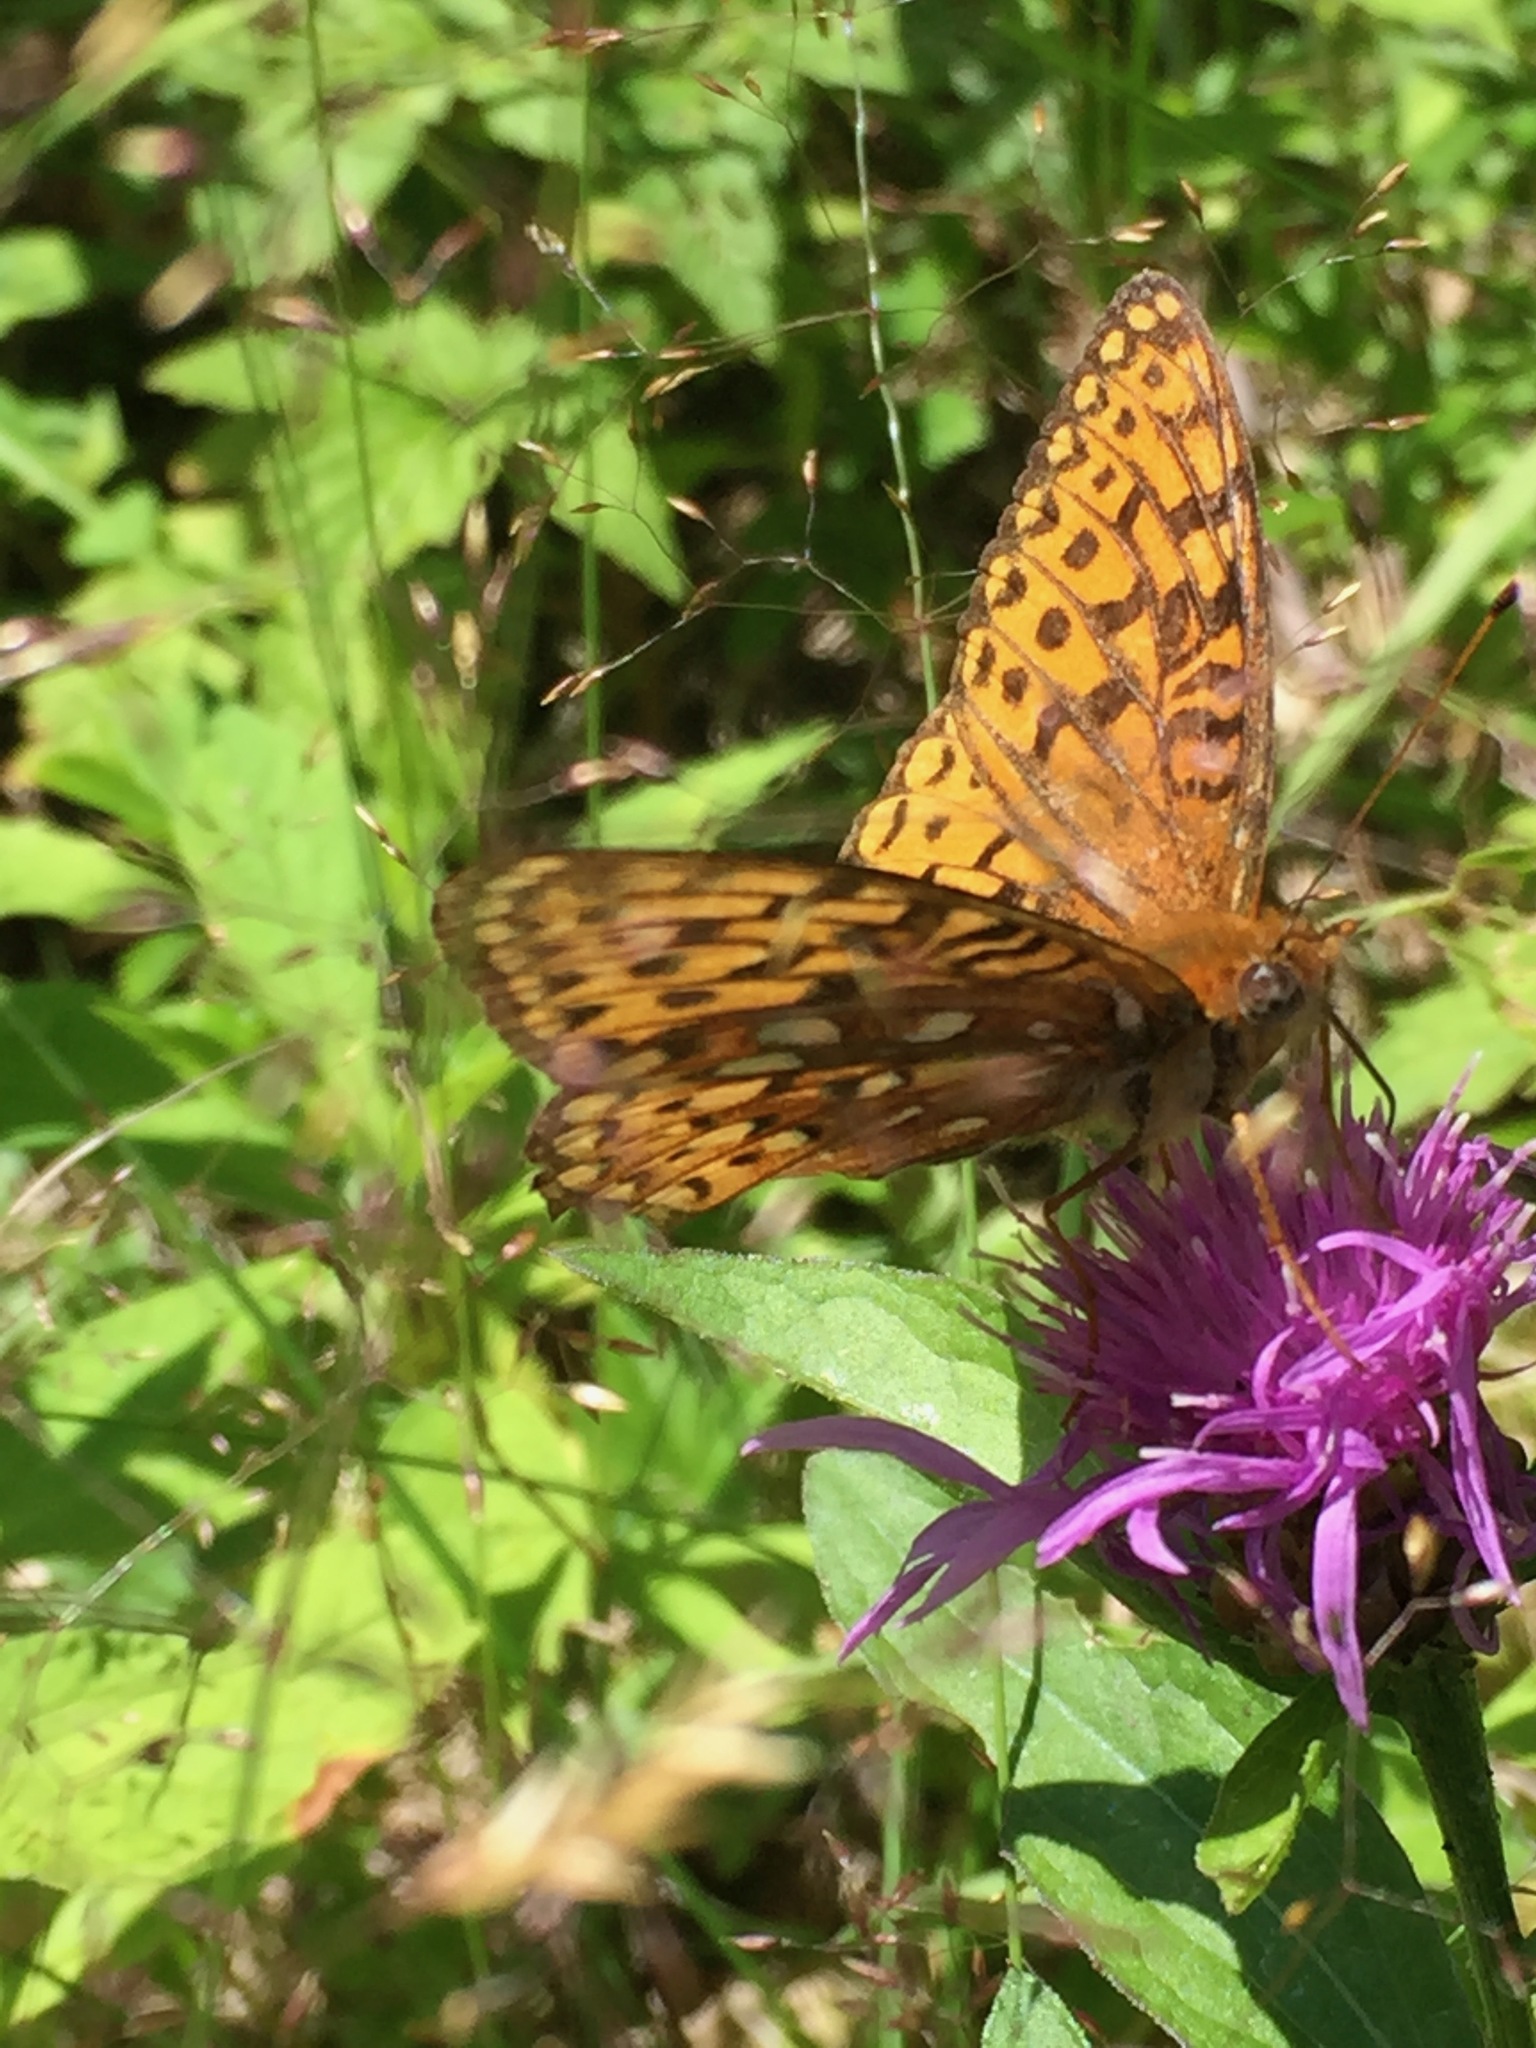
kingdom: Animalia
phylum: Arthropoda
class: Insecta
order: Lepidoptera
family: Nymphalidae
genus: Speyeria
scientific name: Speyeria atlantis
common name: Atlantis fritillary
